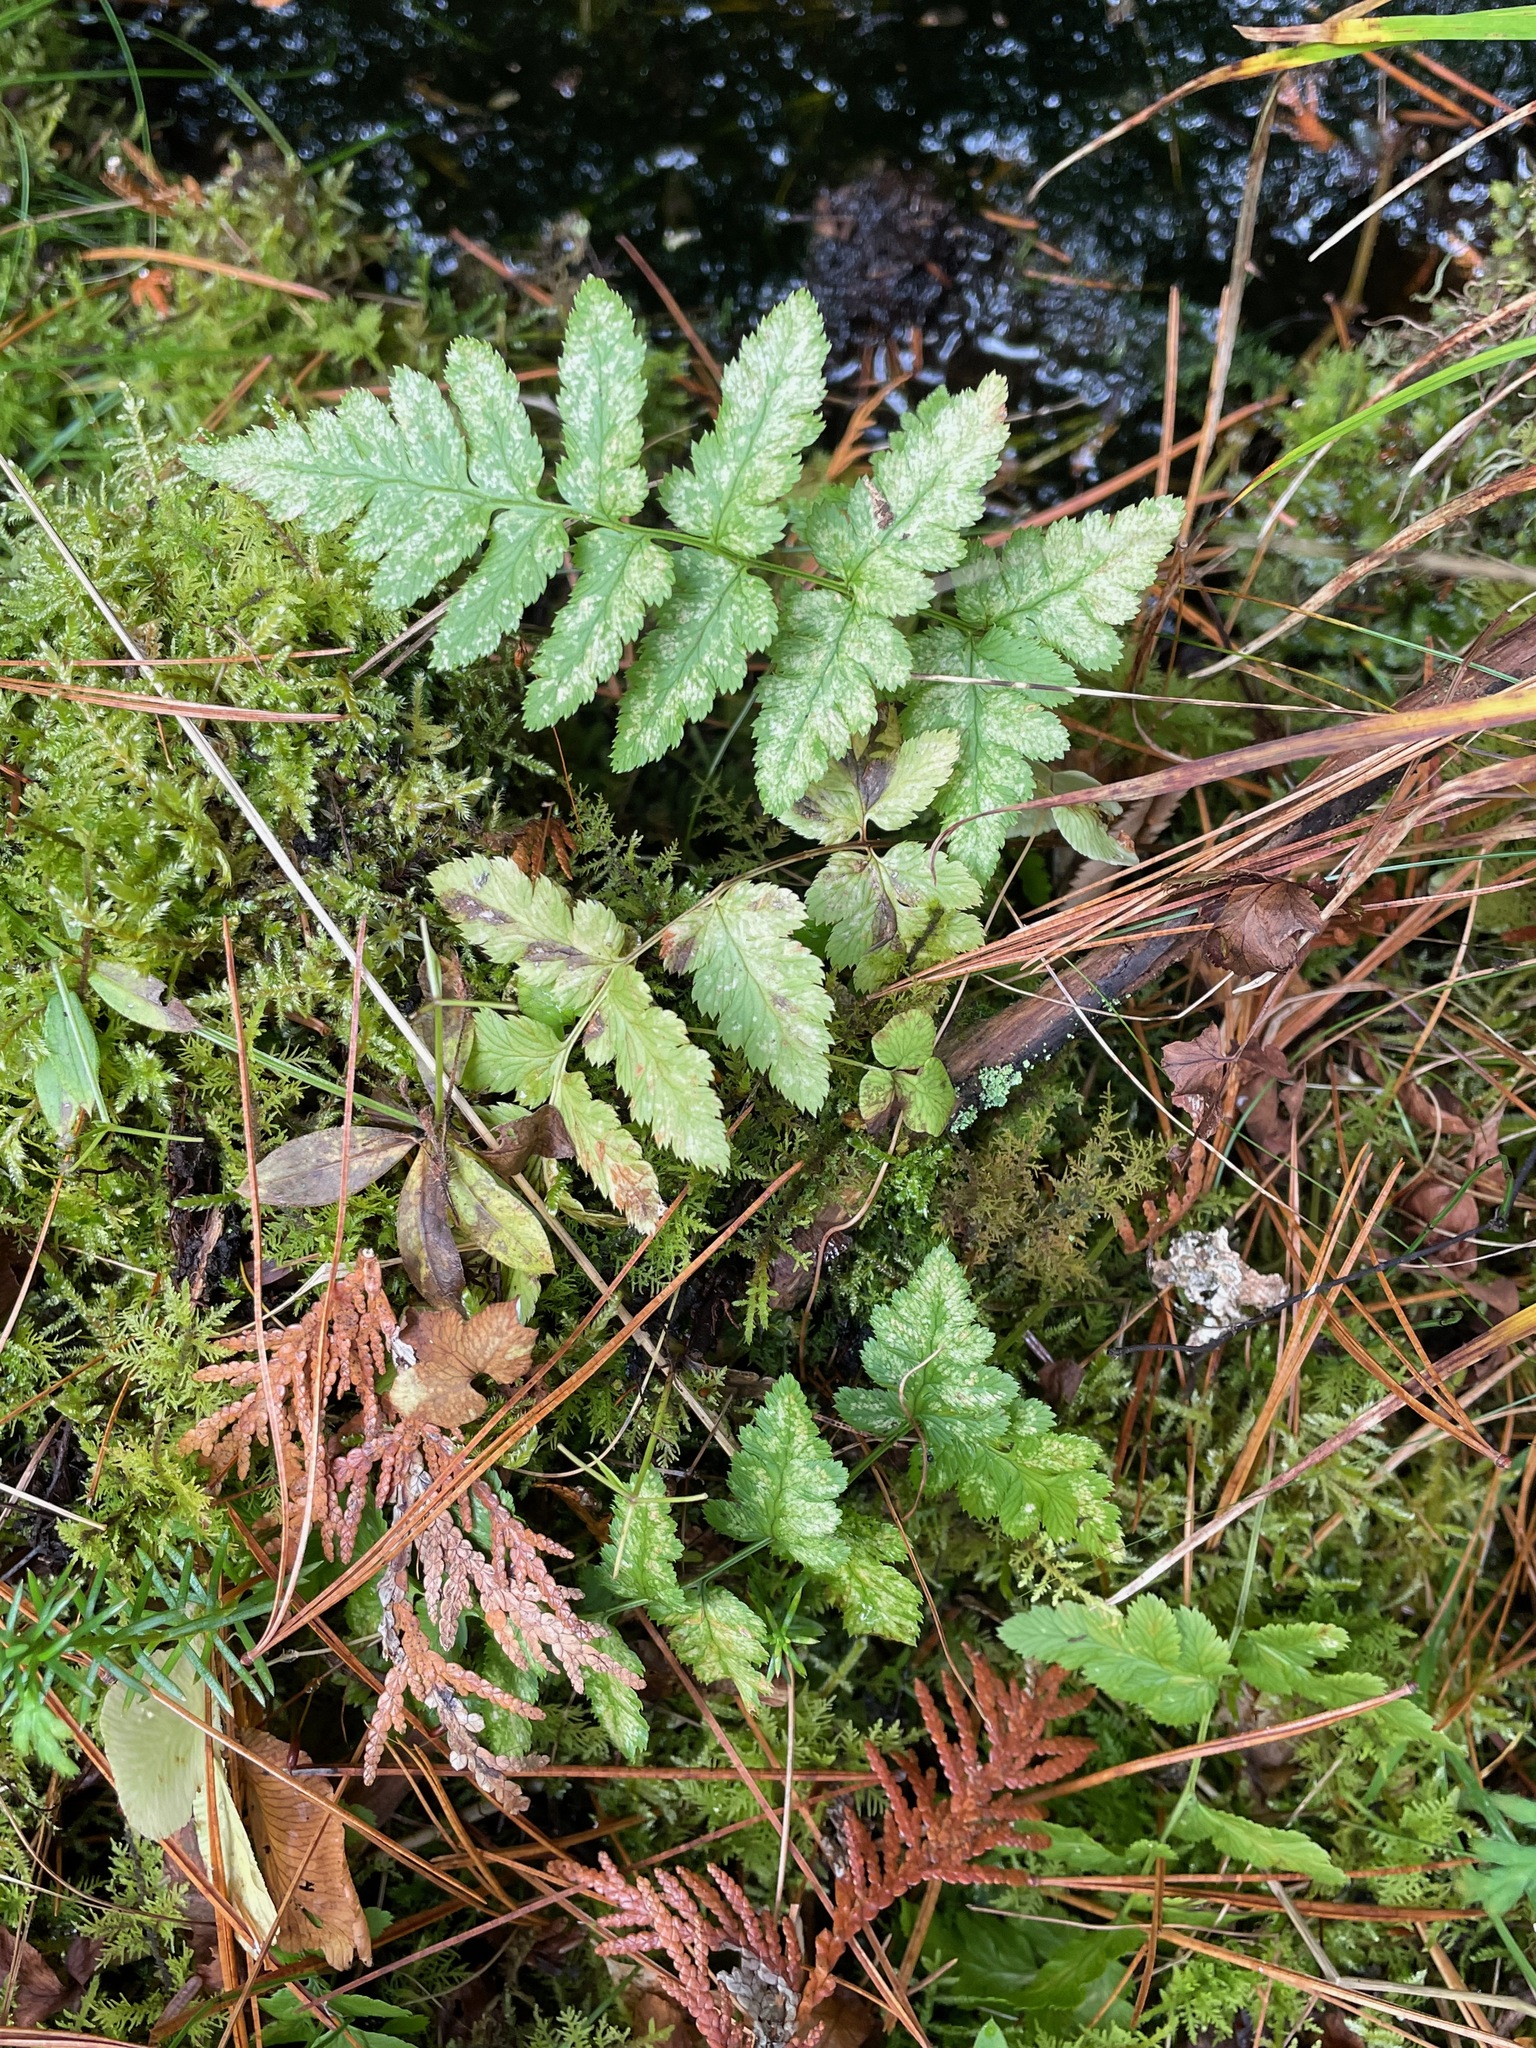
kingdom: Plantae
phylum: Tracheophyta
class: Polypodiopsida
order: Polypodiales
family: Dryopteridaceae
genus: Dryopteris
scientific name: Dryopteris cristata
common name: Crested wood fern
